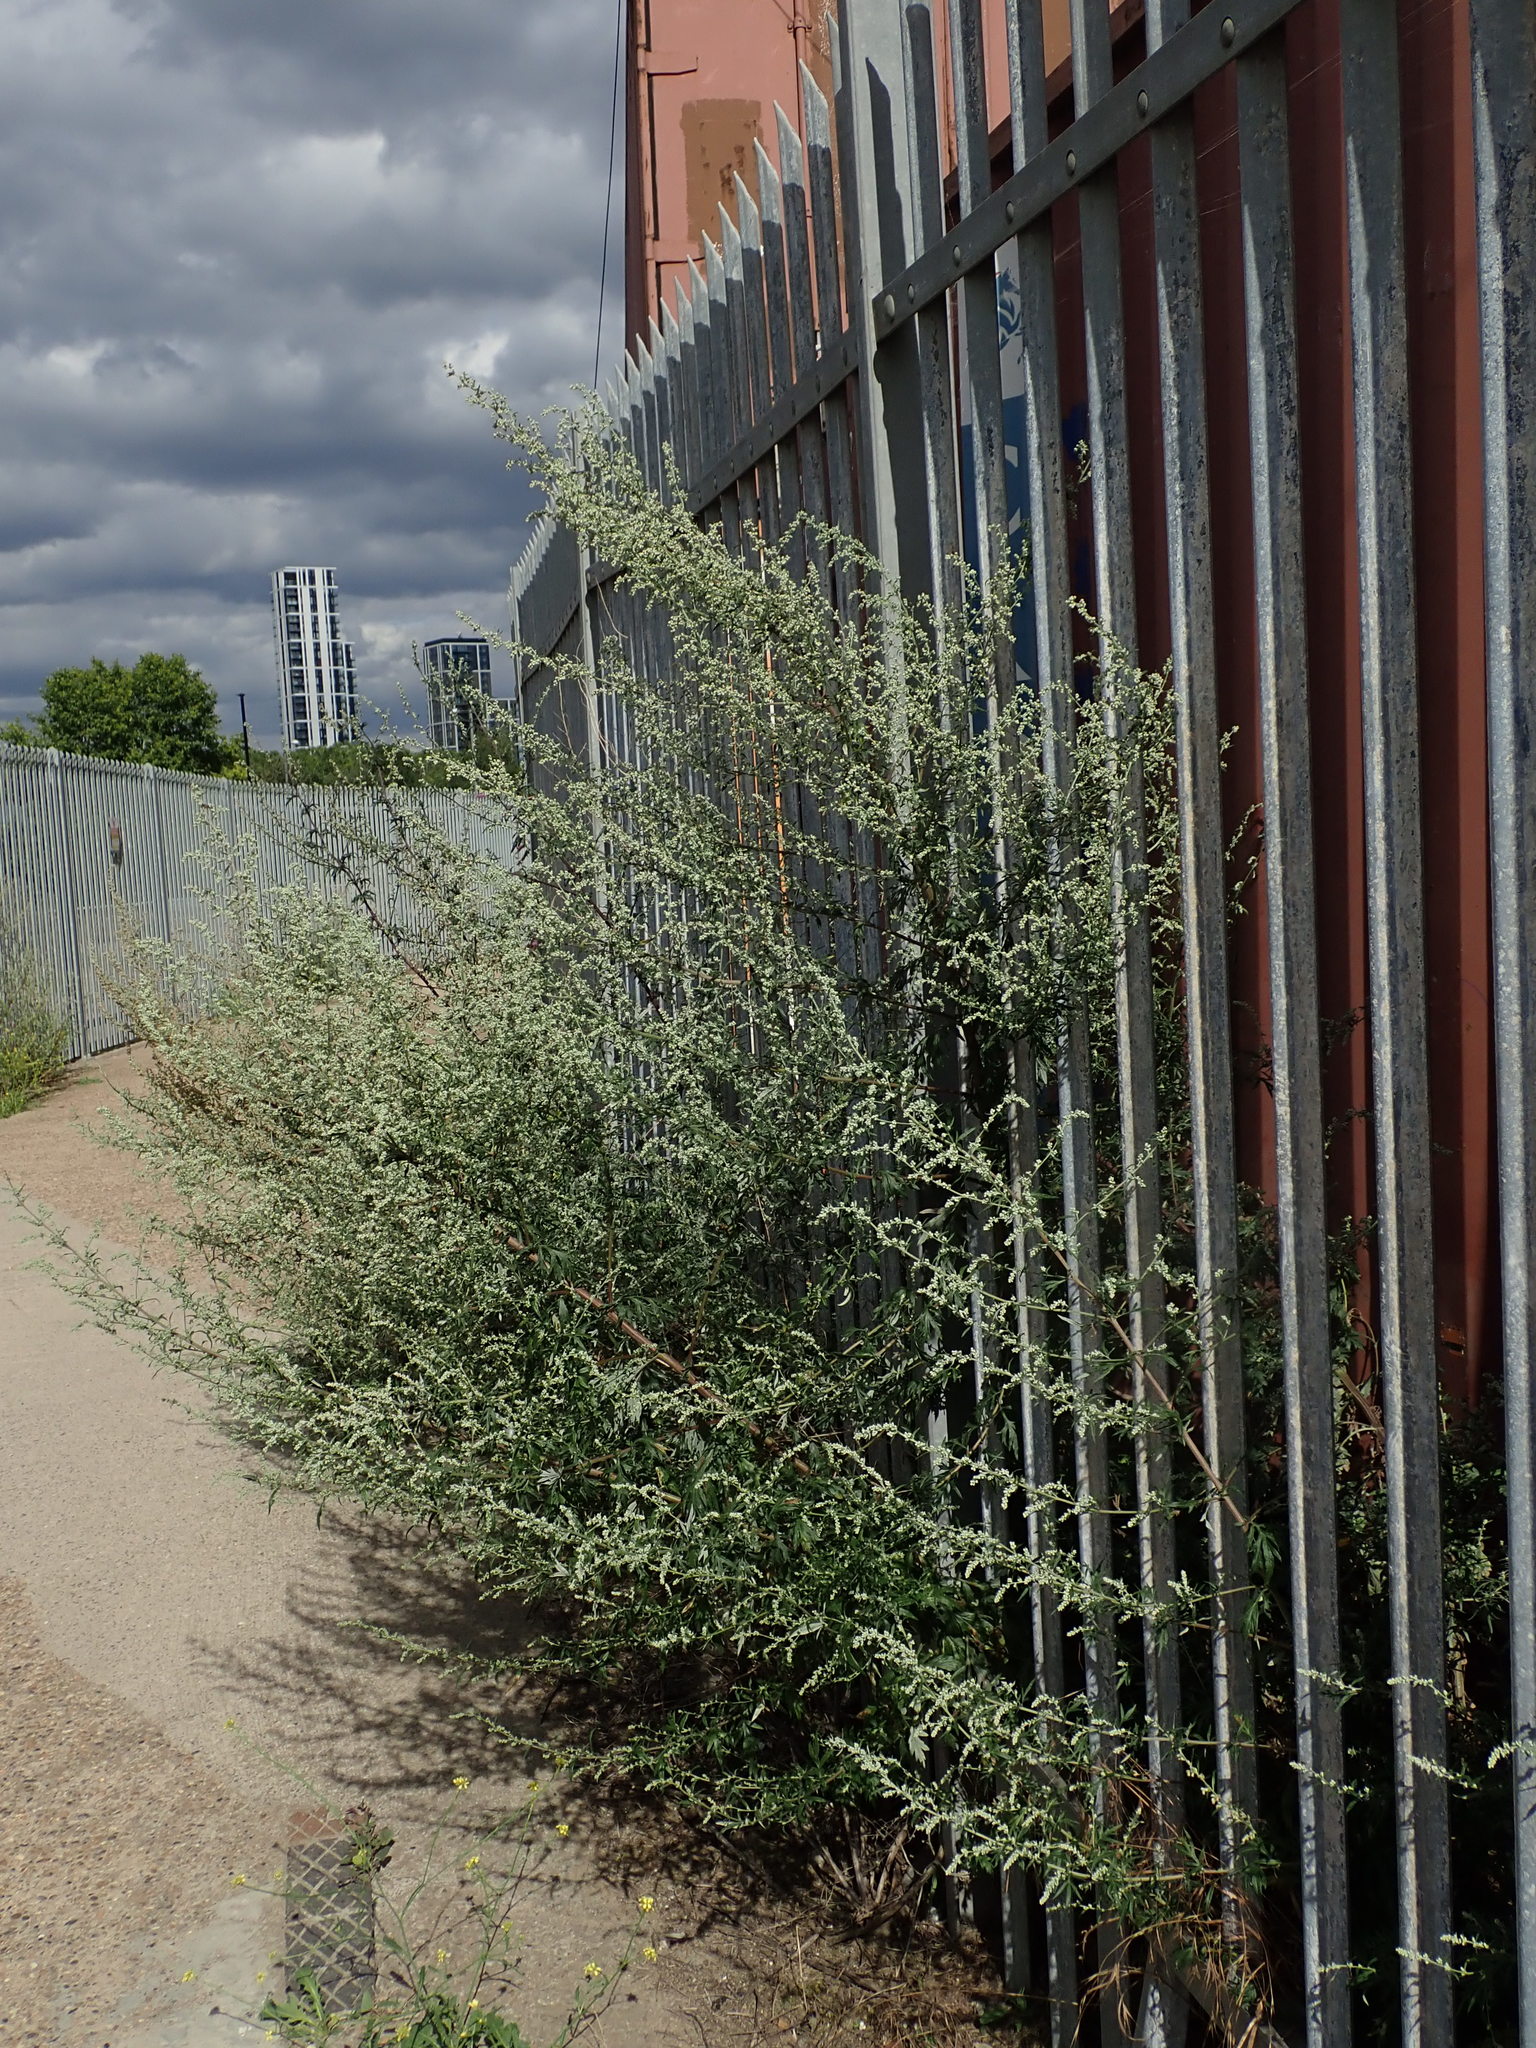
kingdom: Plantae
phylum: Tracheophyta
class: Magnoliopsida
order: Asterales
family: Asteraceae
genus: Artemisia
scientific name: Artemisia vulgaris
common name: Mugwort
